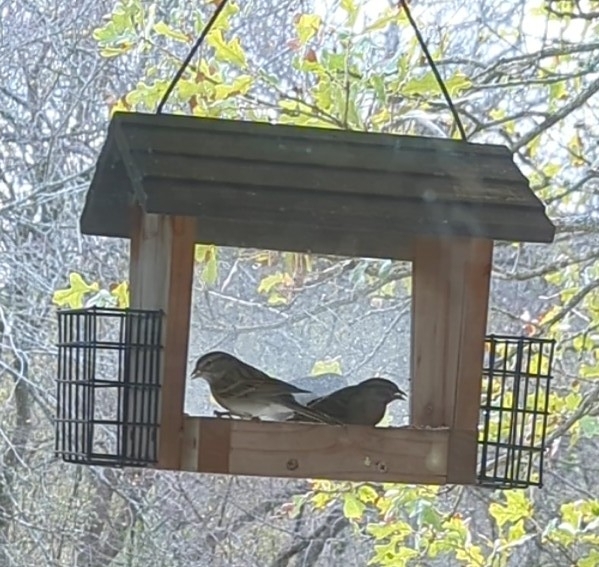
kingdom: Animalia
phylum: Chordata
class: Aves
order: Passeriformes
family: Passerellidae
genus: Spizella
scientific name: Spizella passerina
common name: Chipping sparrow
